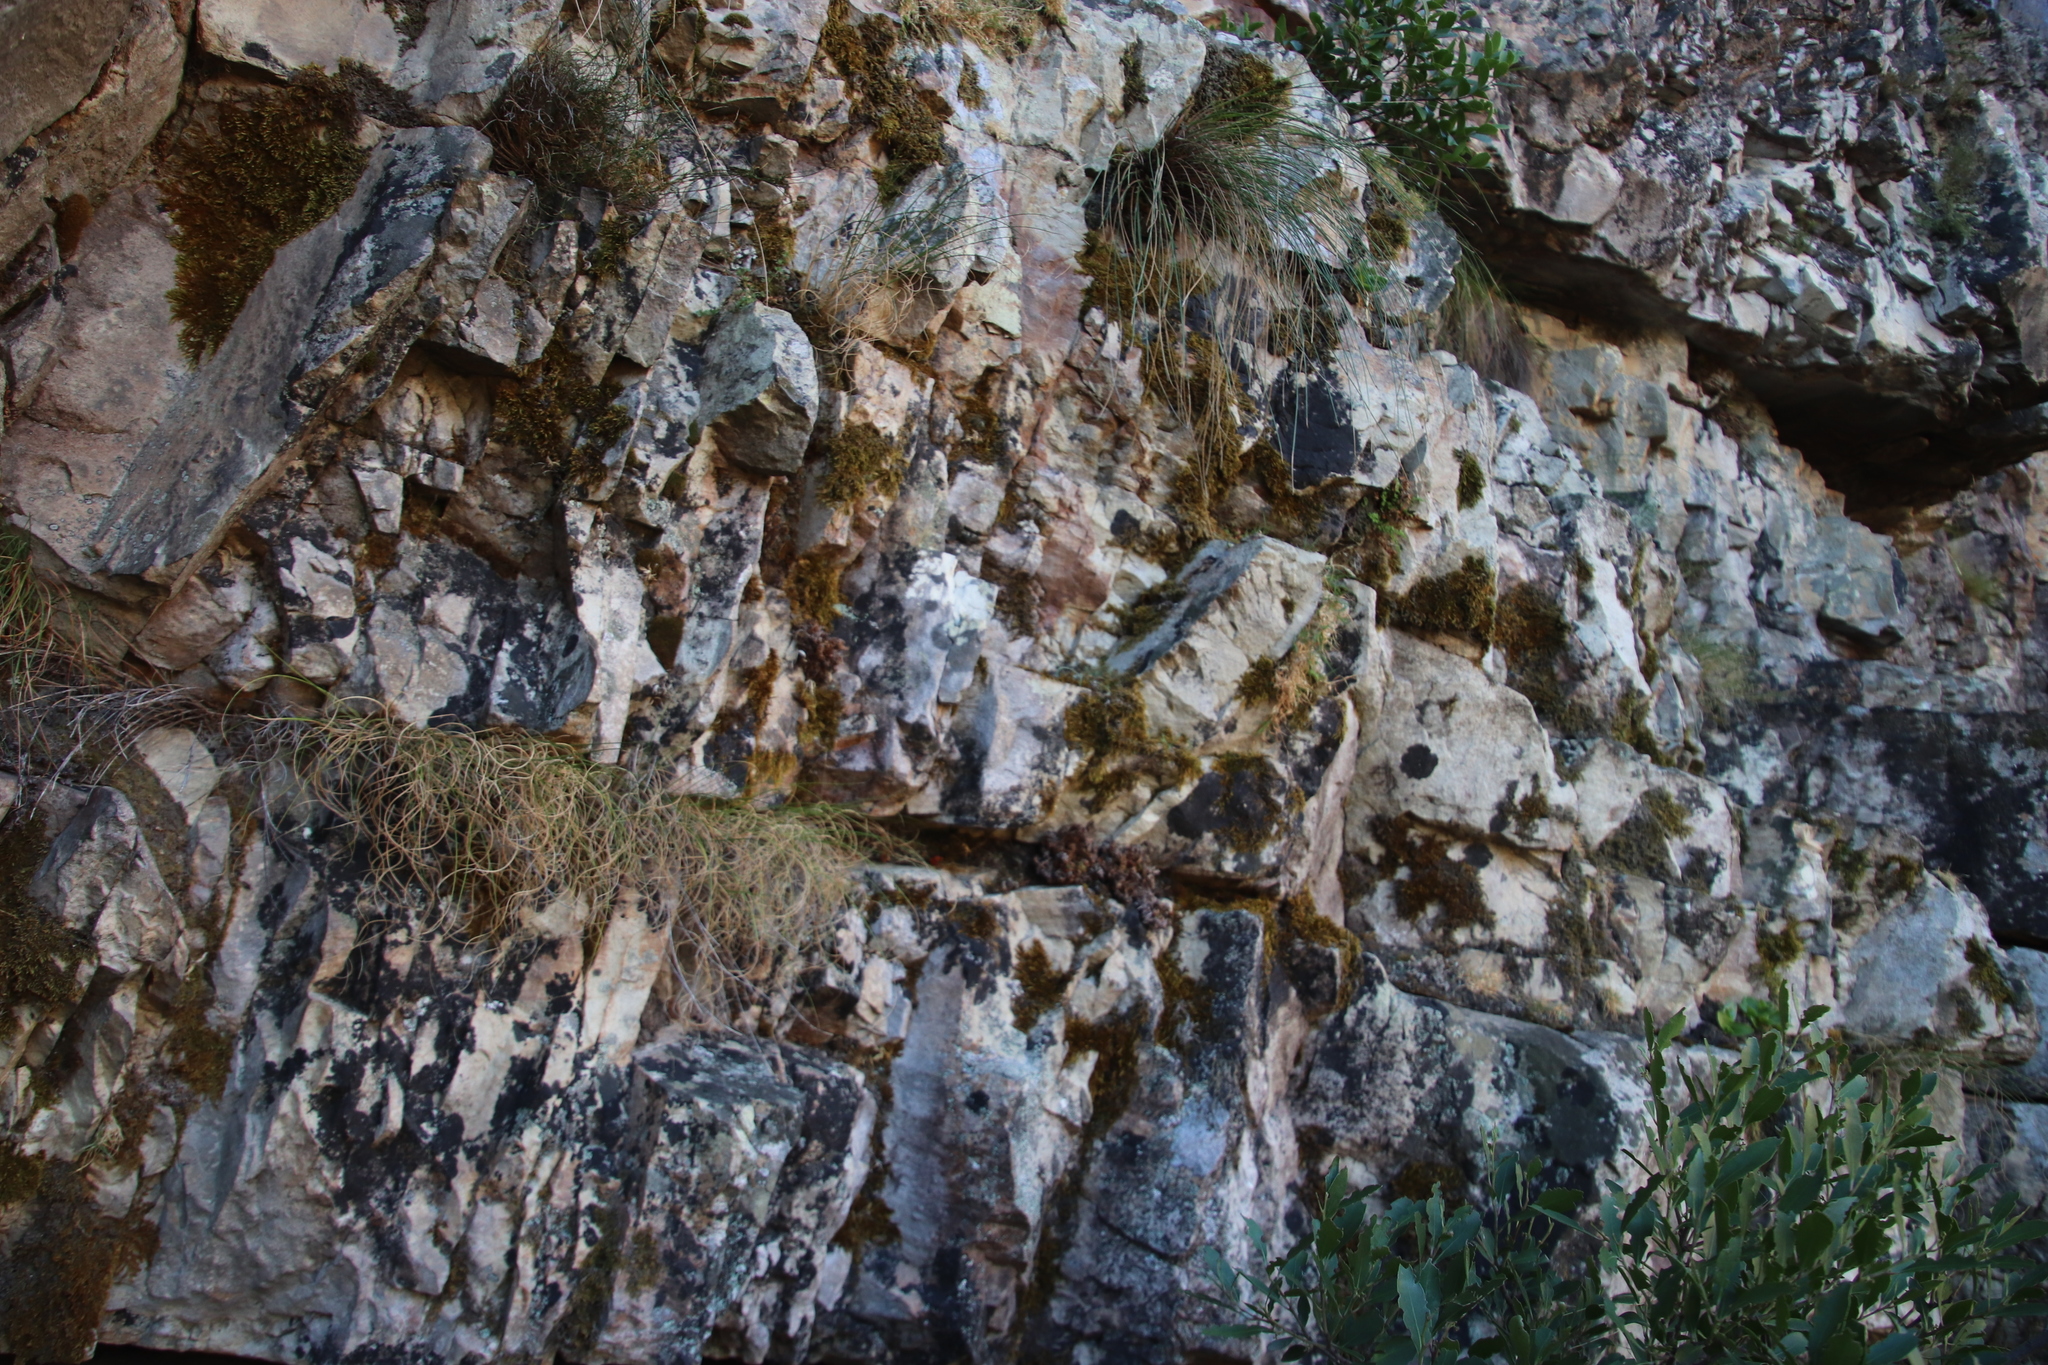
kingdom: Plantae
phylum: Bryophyta
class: Bryopsida
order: Bartramiales
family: Bartramiaceae
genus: Breutelia
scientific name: Breutelia substricta
